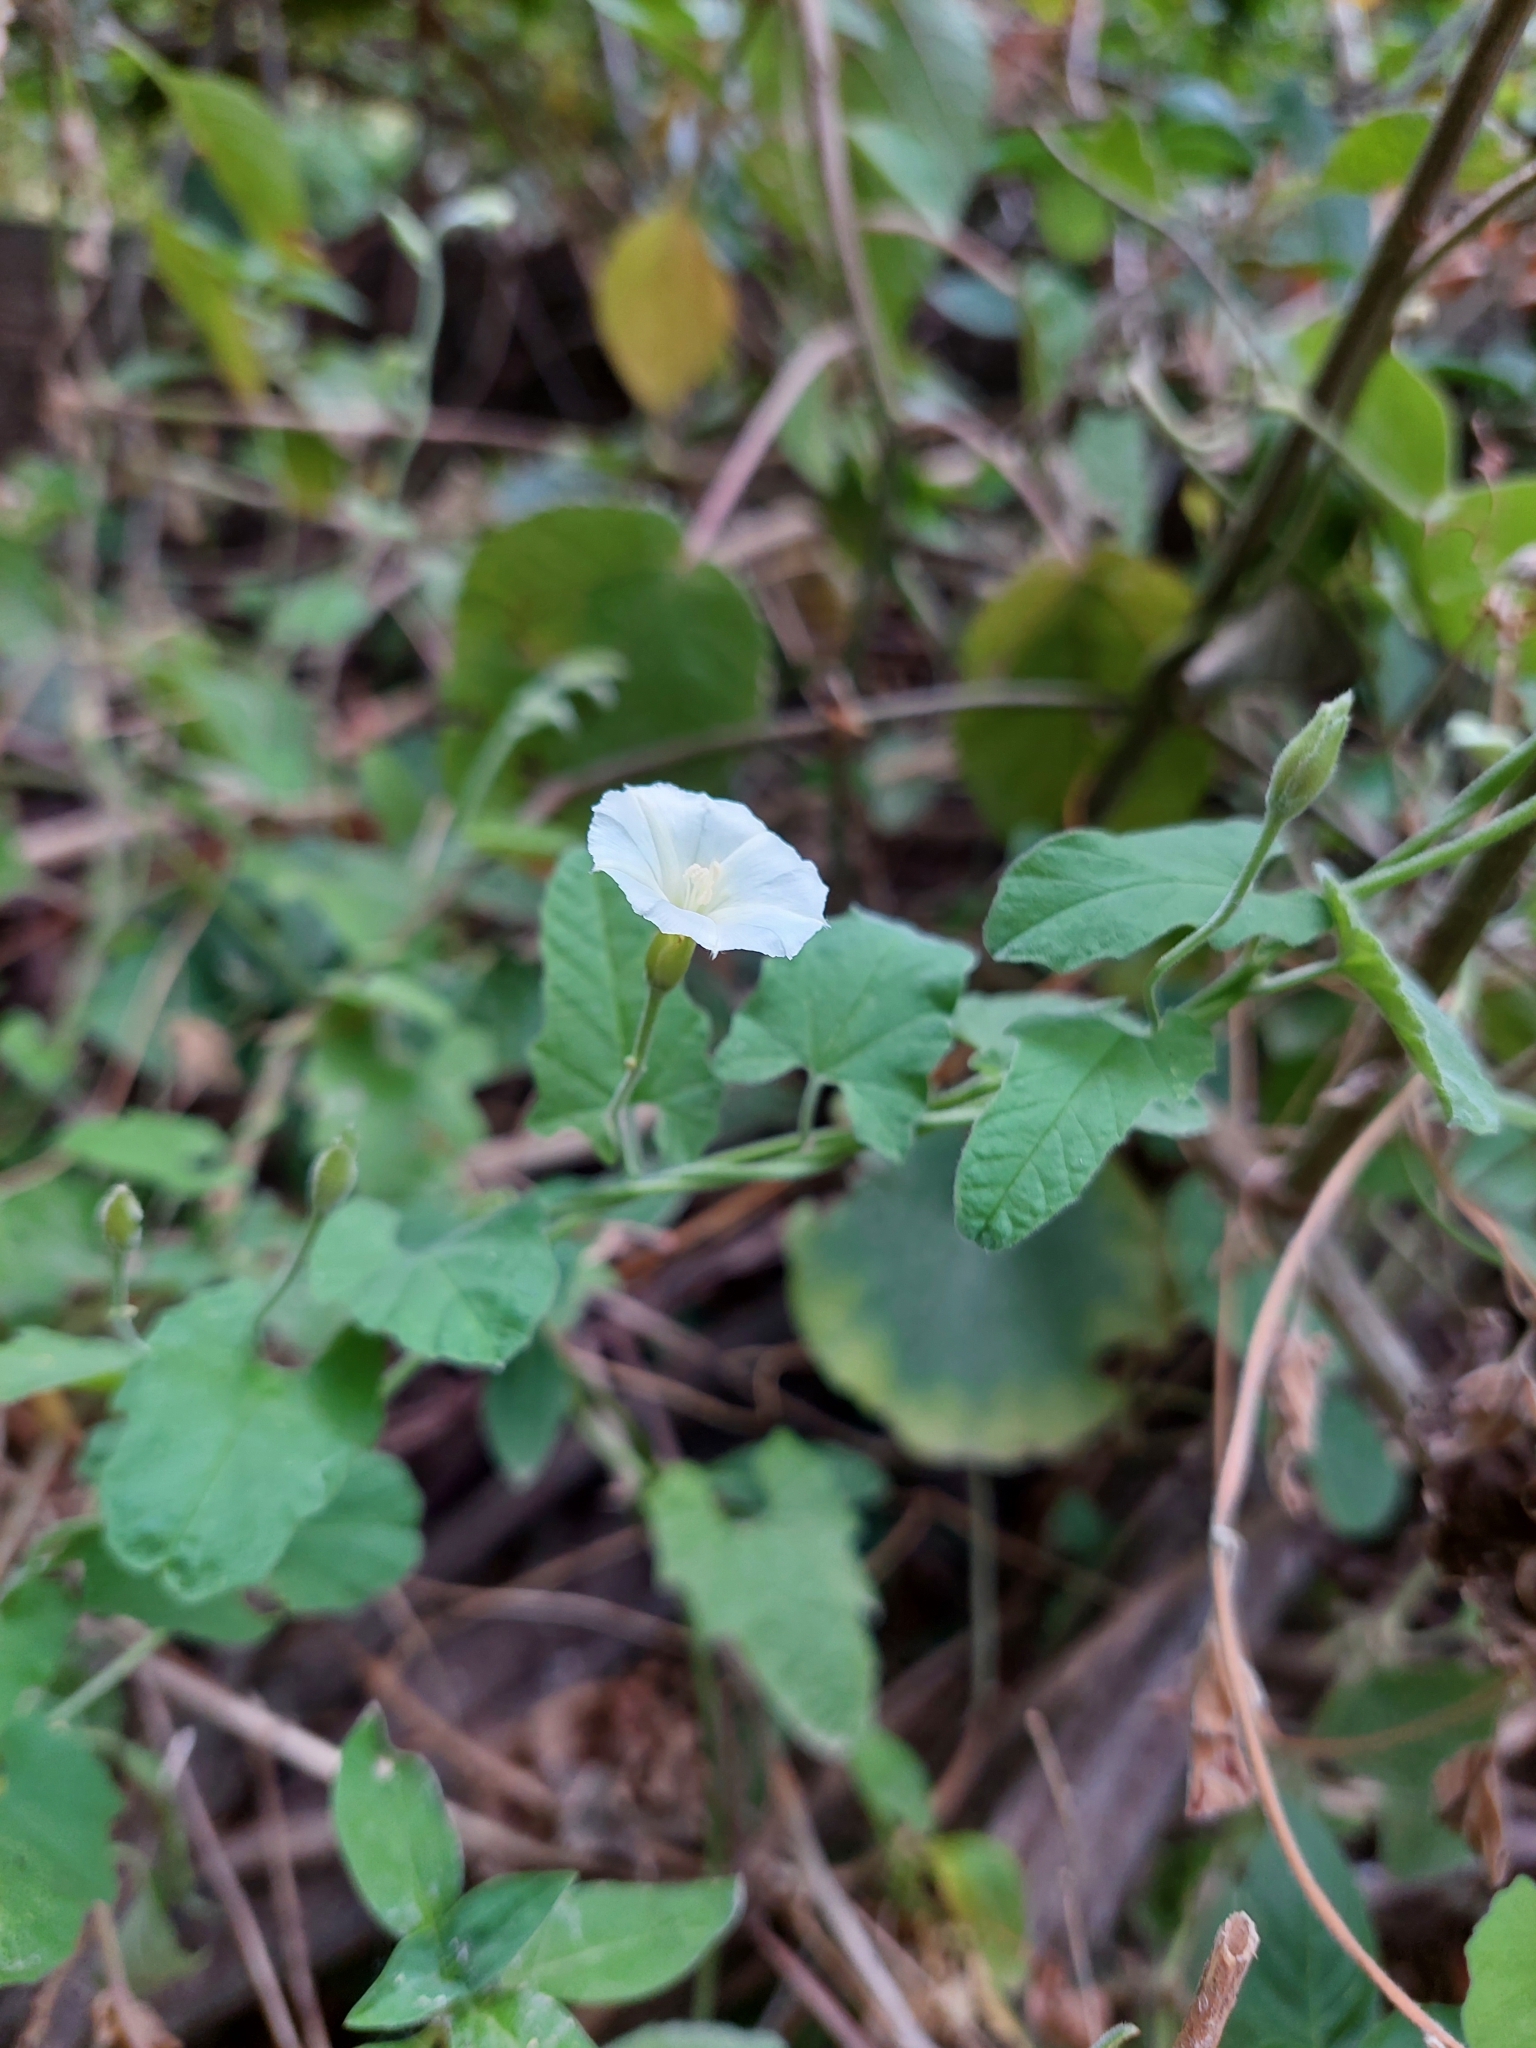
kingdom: Plantae
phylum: Tracheophyta
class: Magnoliopsida
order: Solanales
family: Convolvulaceae
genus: Convolvulus
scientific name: Convolvulus crenatifolius
